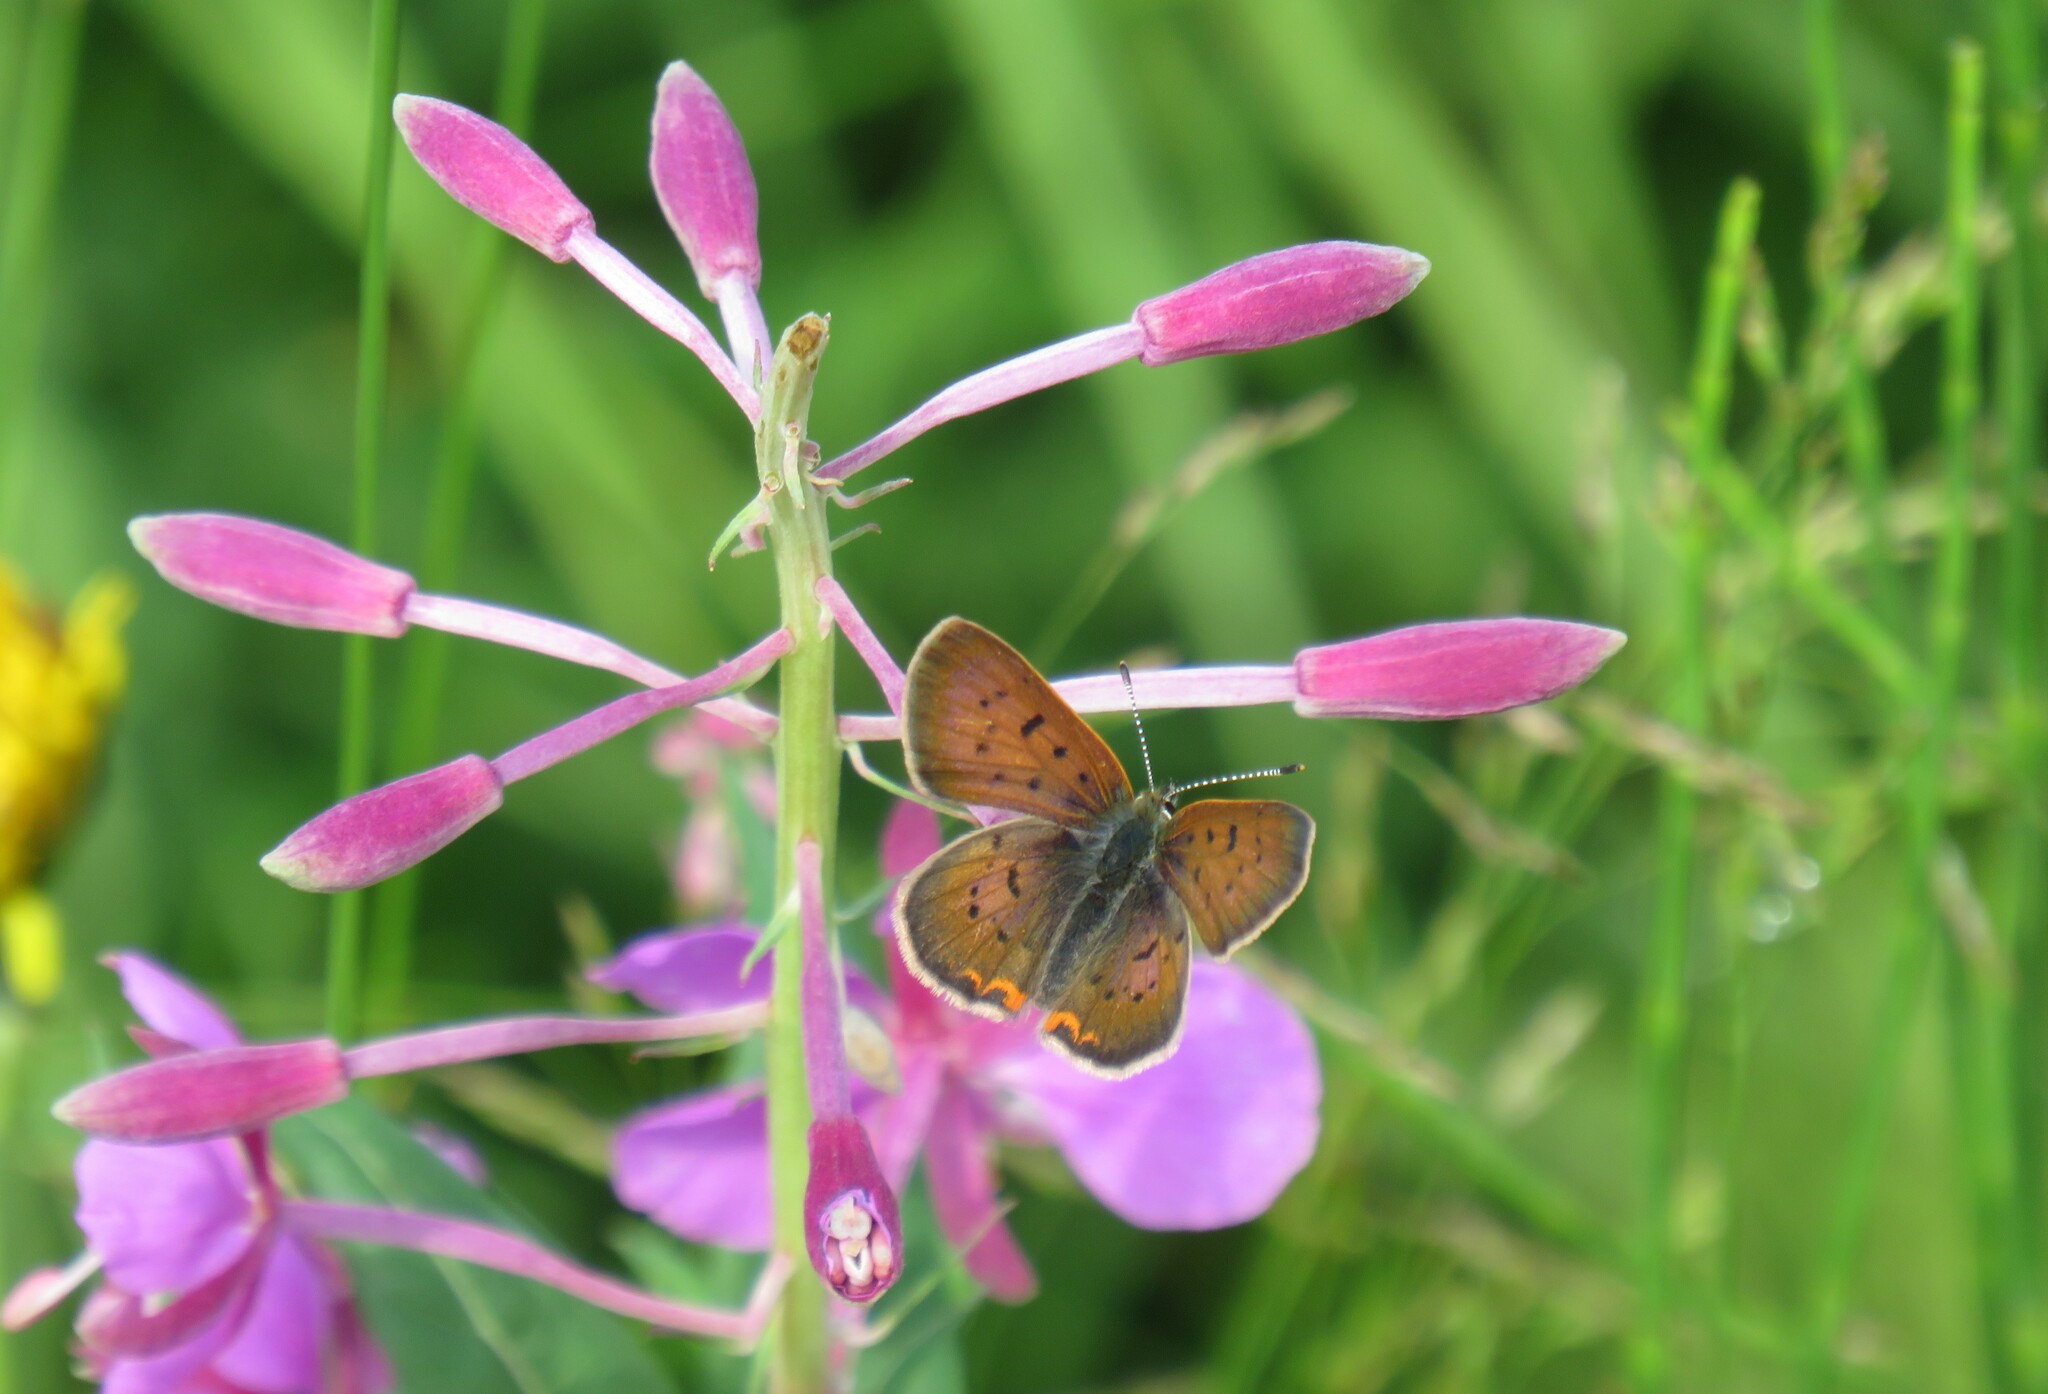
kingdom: Animalia
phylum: Arthropoda
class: Insecta
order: Lepidoptera
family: Lycaenidae
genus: Tharsalea
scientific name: Tharsalea dorcas
